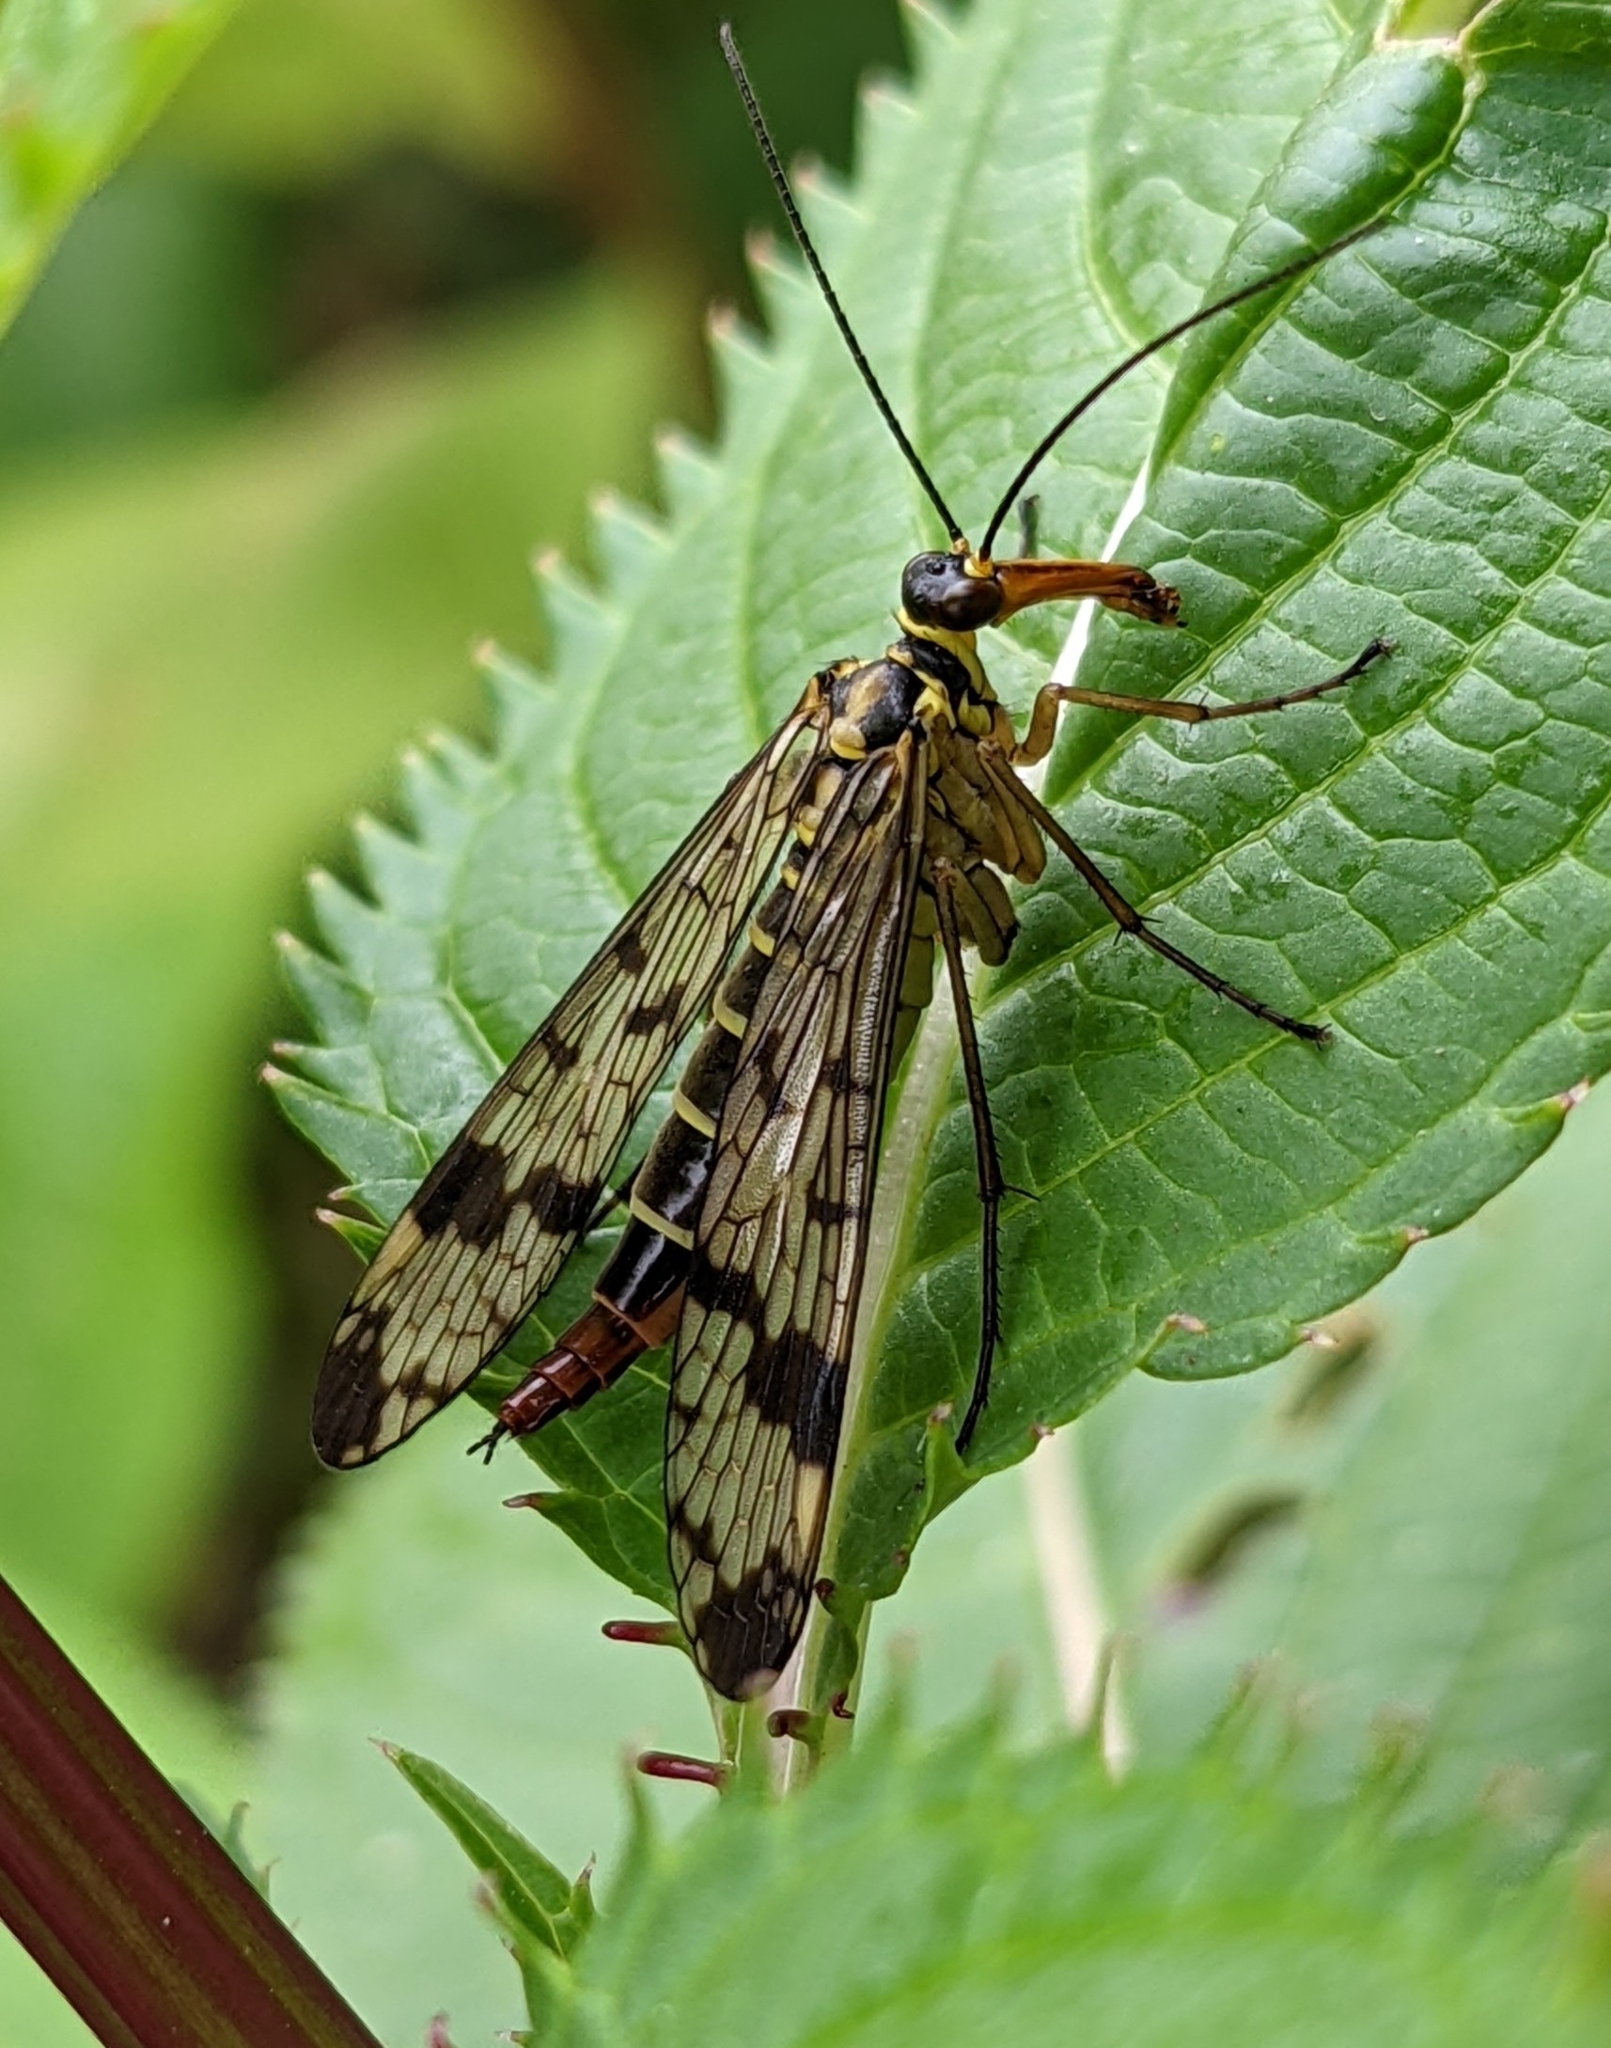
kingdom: Animalia
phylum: Arthropoda
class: Insecta
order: Mecoptera
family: Panorpidae
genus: Panorpa
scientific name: Panorpa communis
